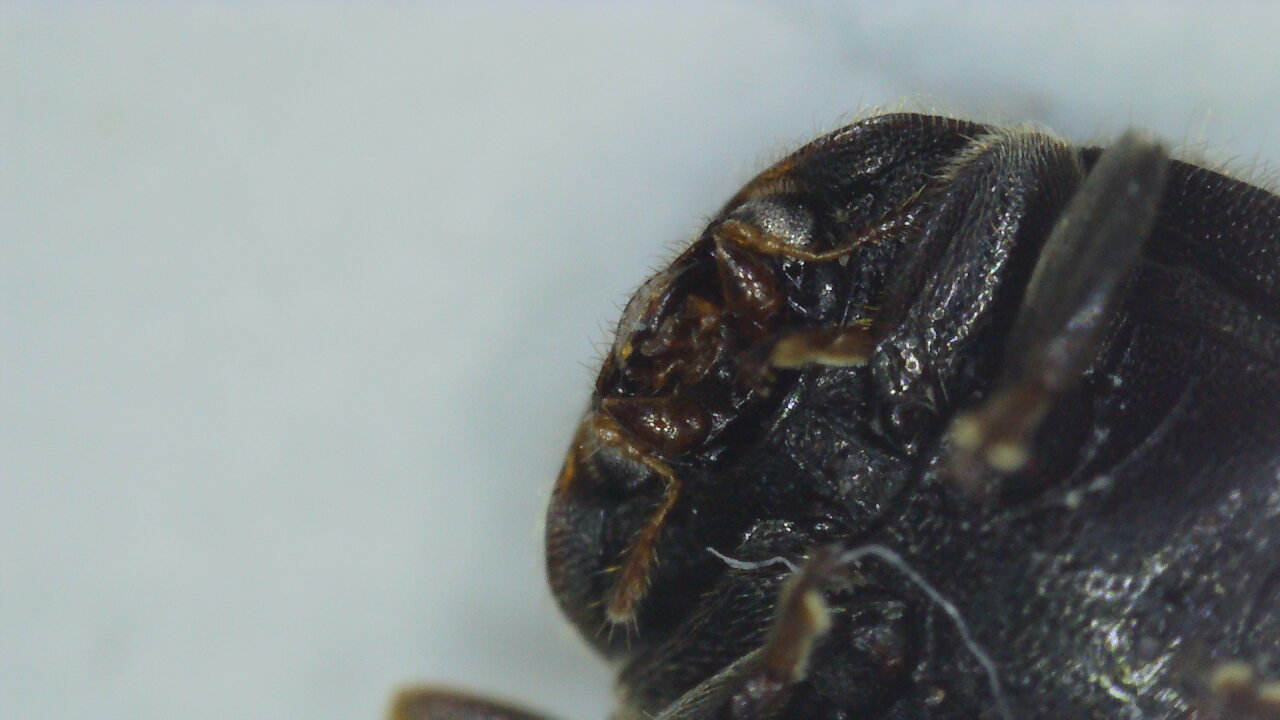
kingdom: Animalia
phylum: Arthropoda
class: Insecta
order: Coleoptera
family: Coccinellidae
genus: Rhyzobius
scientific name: Rhyzobius forestieri
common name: Ladybird beetle
